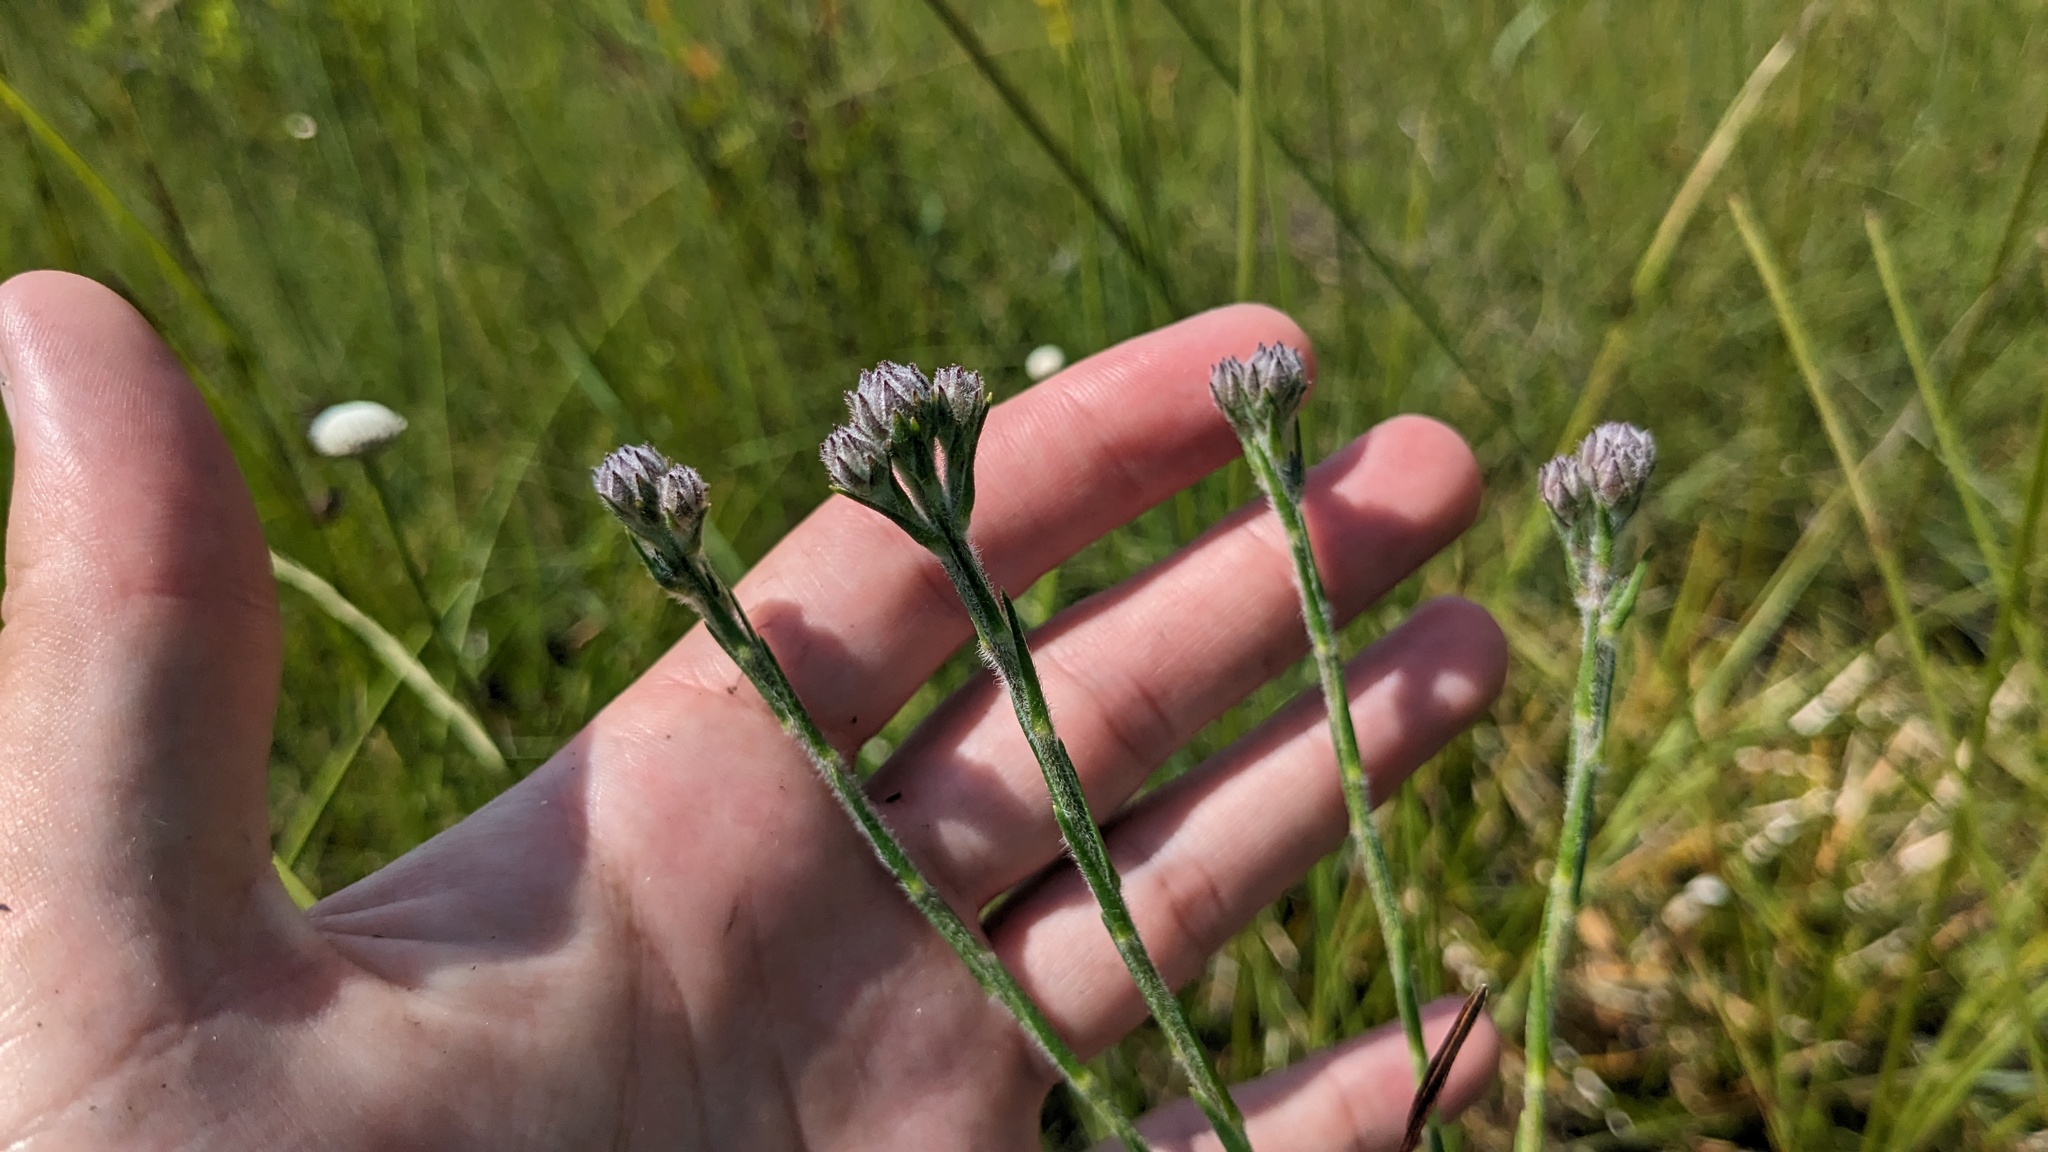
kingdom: Plantae
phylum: Tracheophyta
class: Magnoliopsida
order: Asterales
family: Asteraceae
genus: Carphephorus
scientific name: Carphephorus pseudoliatris
